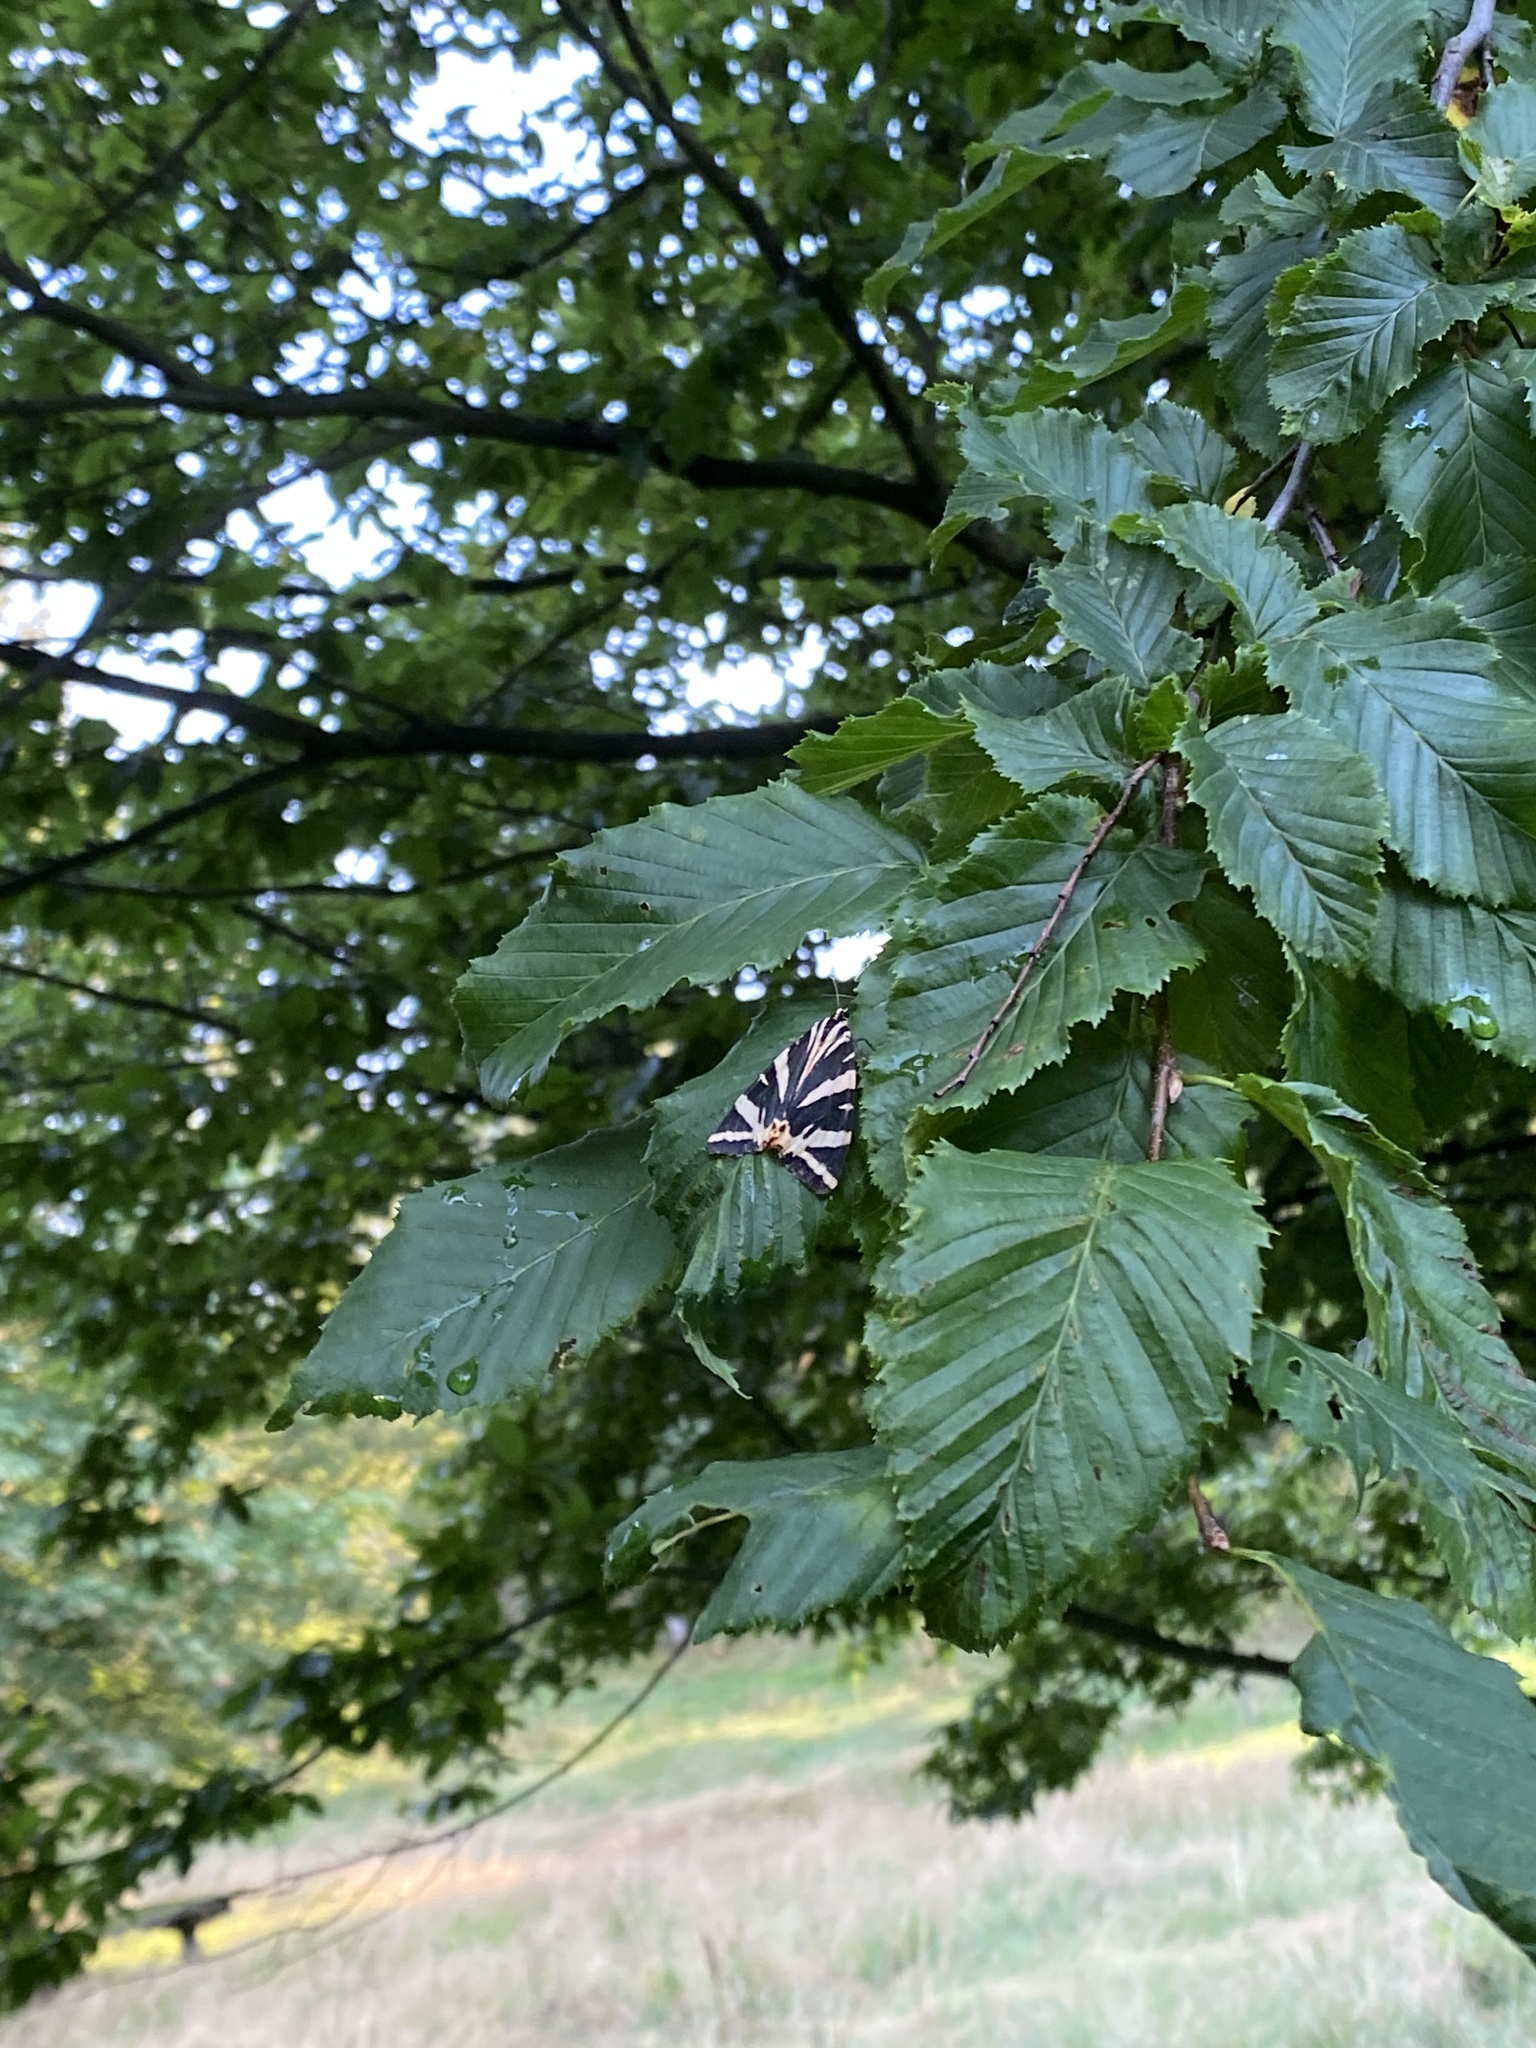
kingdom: Animalia
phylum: Arthropoda
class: Insecta
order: Lepidoptera
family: Erebidae
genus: Euplagia
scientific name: Euplagia quadripunctaria
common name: Jersey tiger
